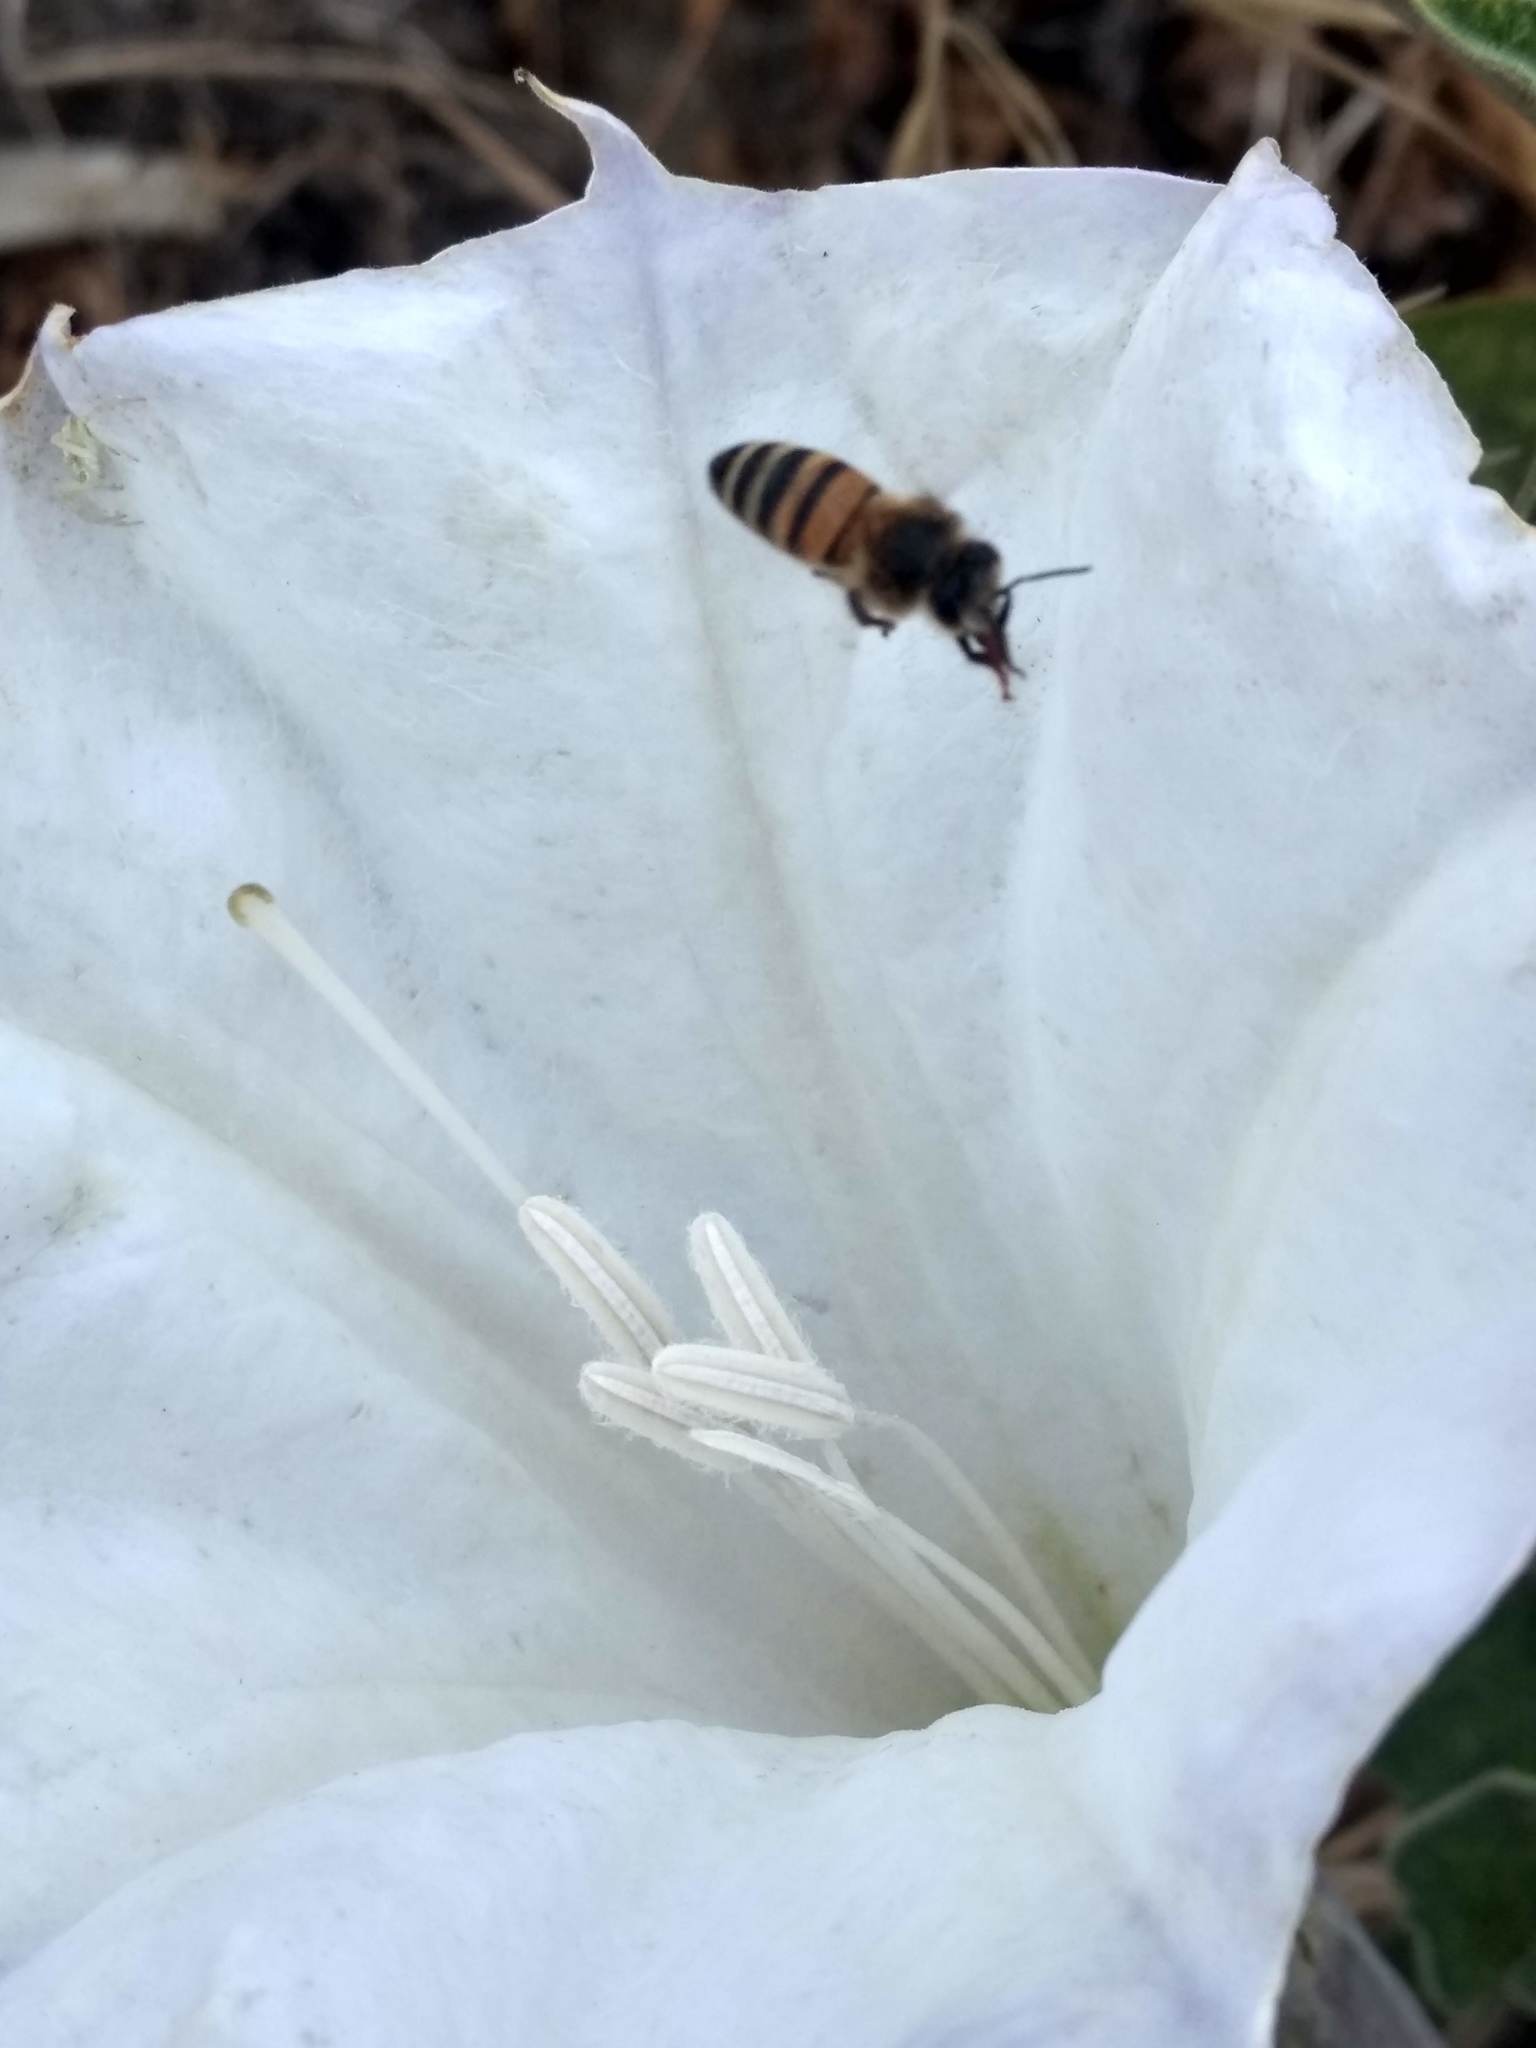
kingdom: Animalia
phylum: Arthropoda
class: Insecta
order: Hymenoptera
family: Apidae
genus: Apis
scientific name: Apis mellifera
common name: Honey bee
